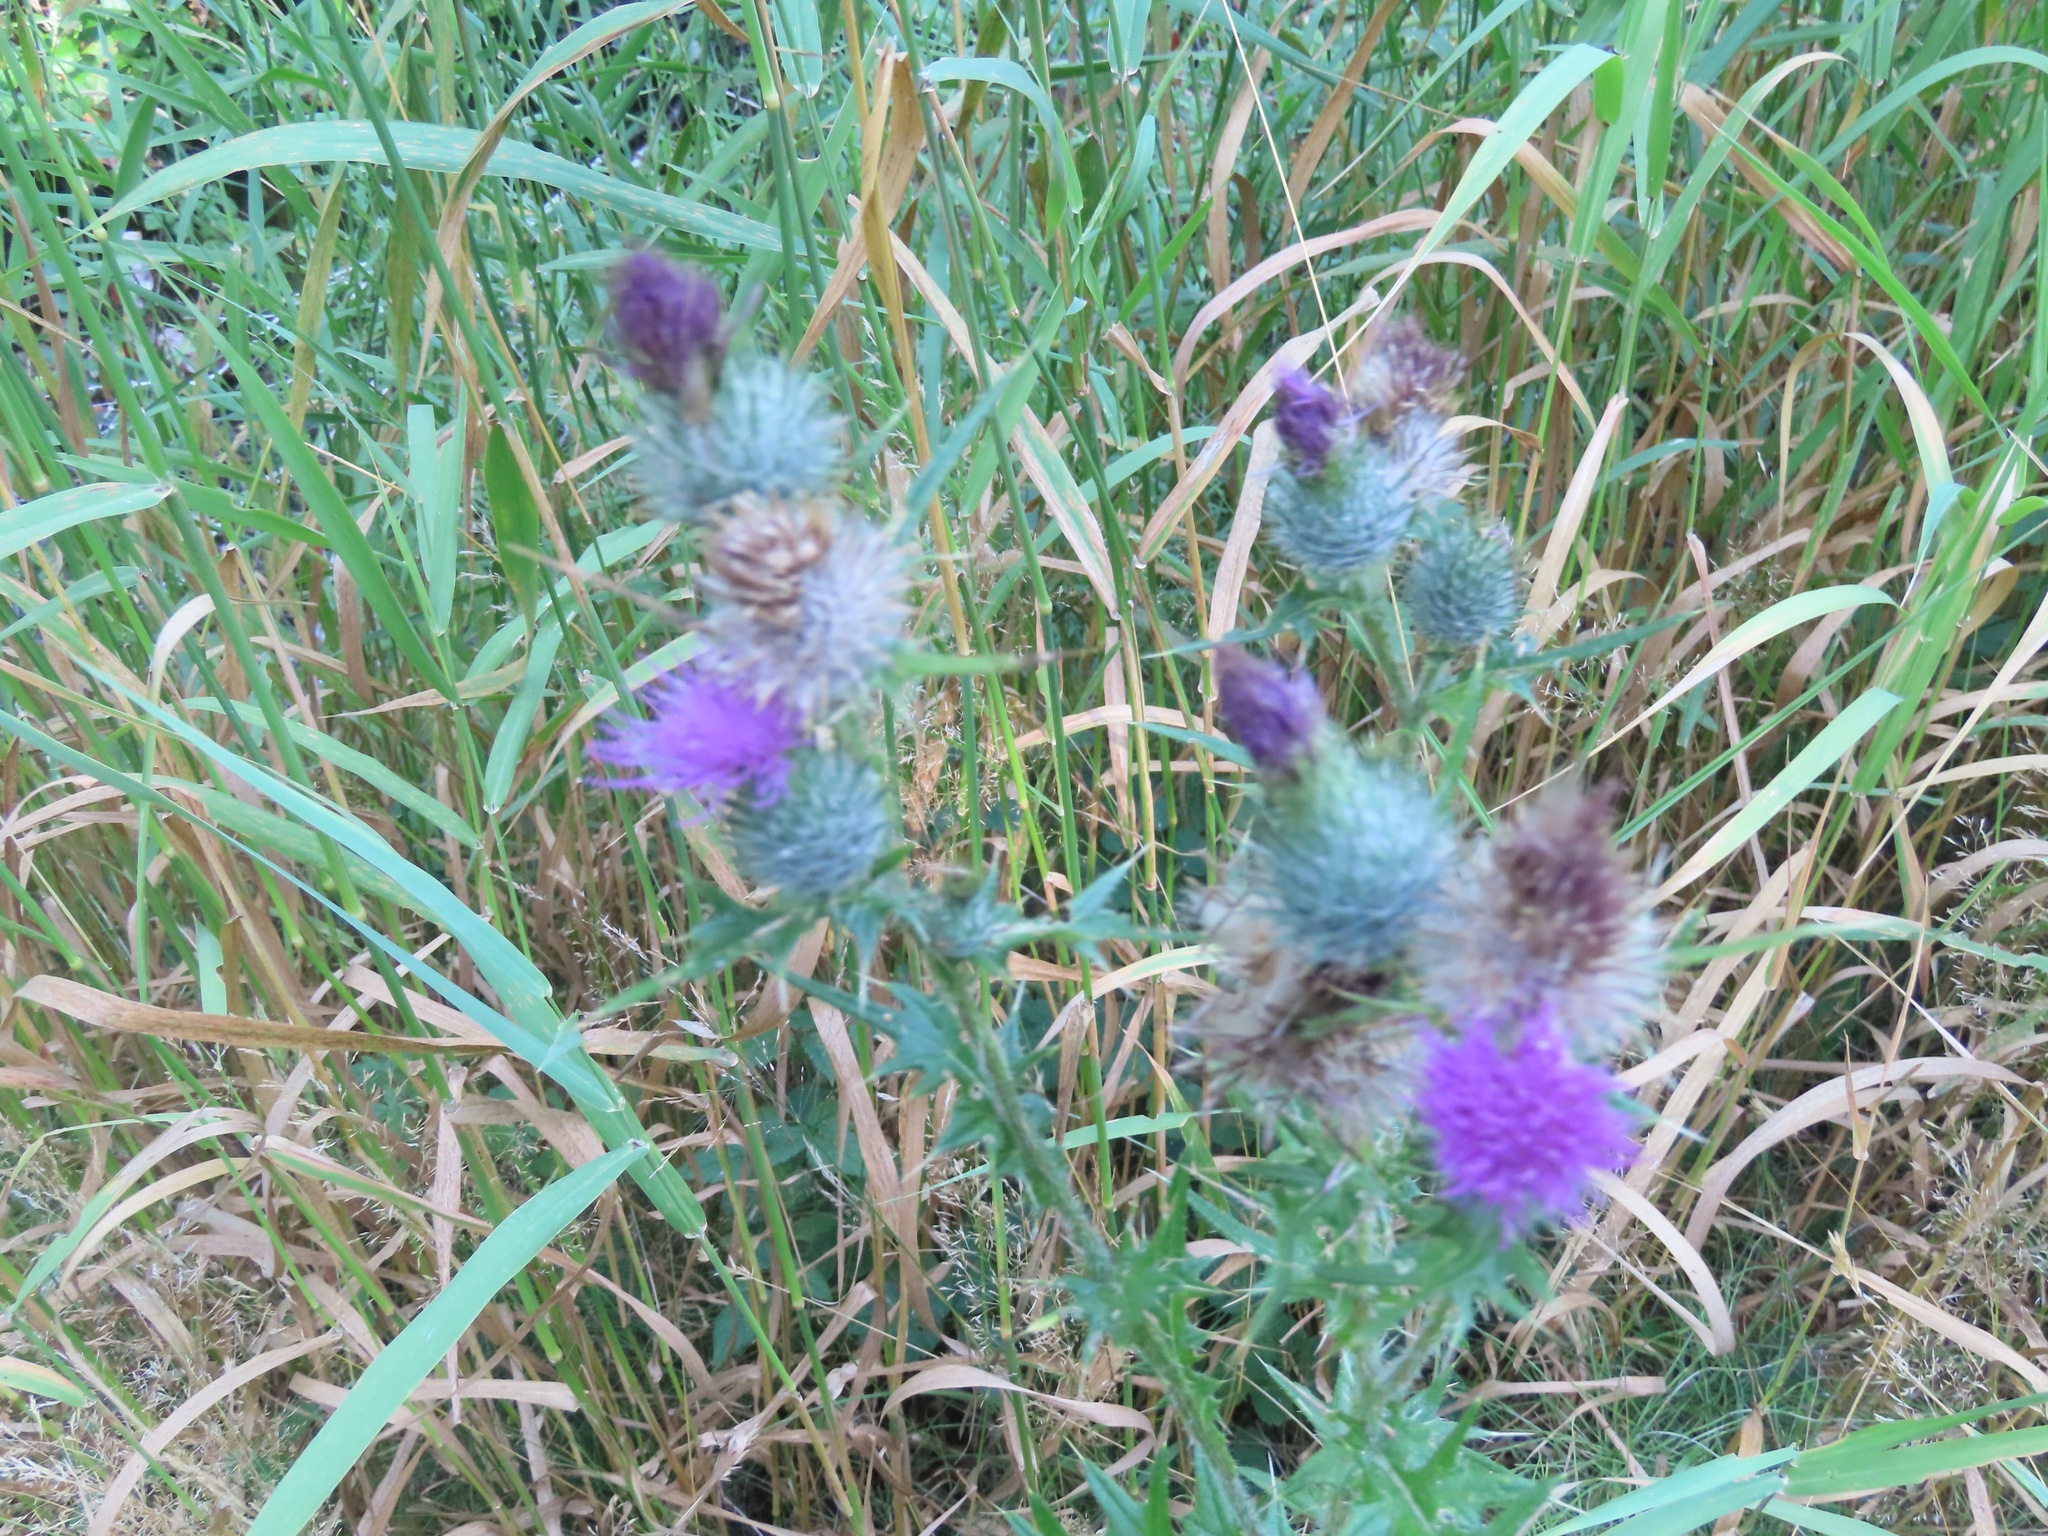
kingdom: Plantae
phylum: Tracheophyta
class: Magnoliopsida
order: Asterales
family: Asteraceae
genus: Cirsium
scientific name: Cirsium vulgare
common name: Bull thistle
